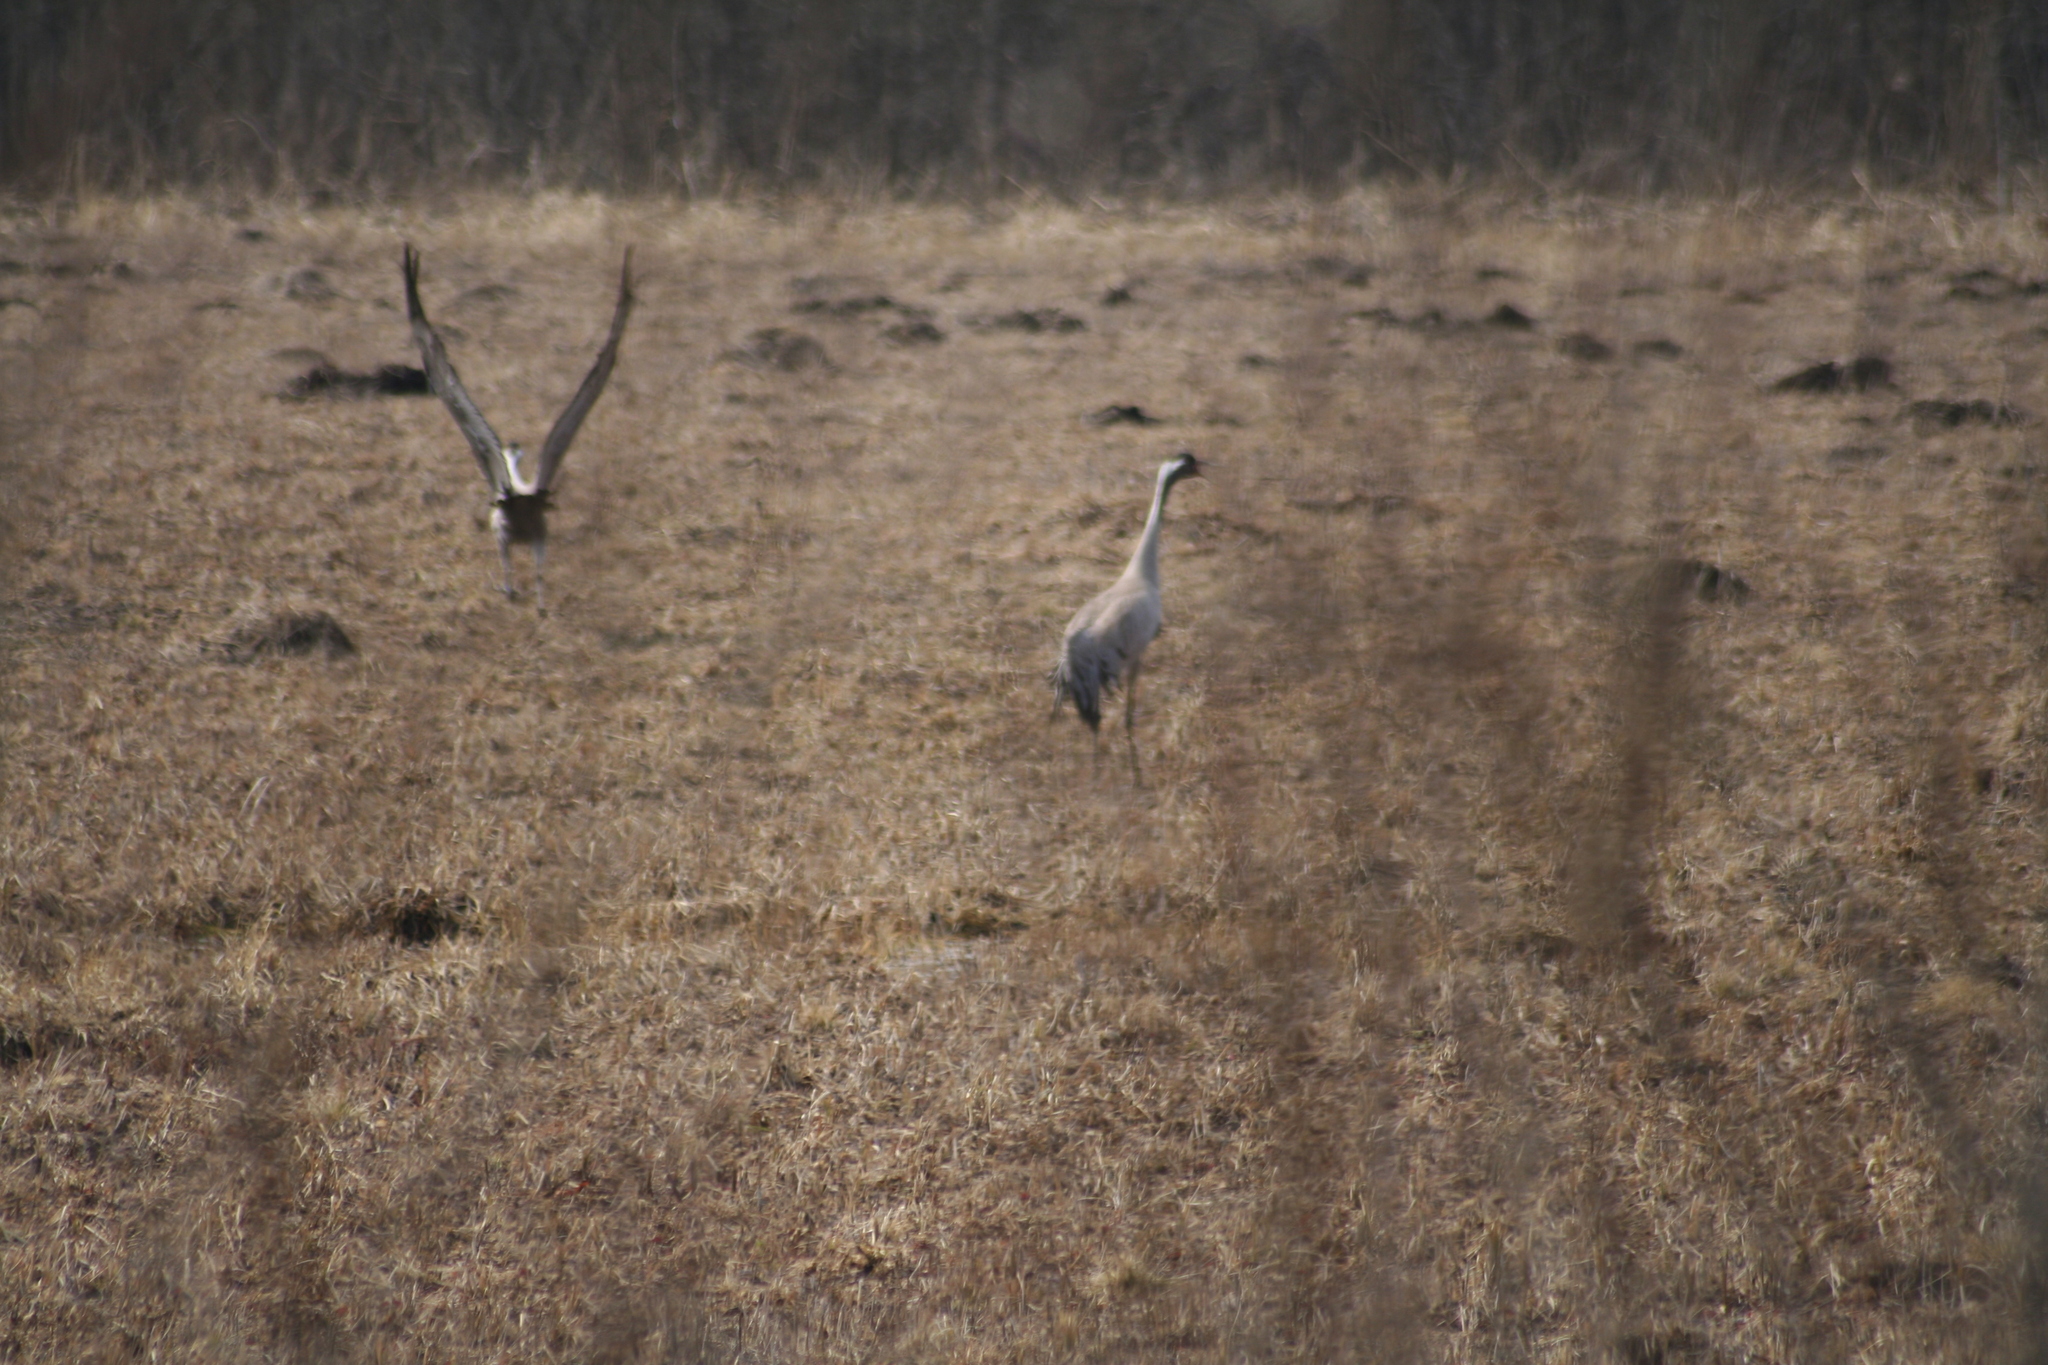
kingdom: Animalia
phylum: Chordata
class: Aves
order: Gruiformes
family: Gruidae
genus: Grus
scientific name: Grus grus
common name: Common crane
